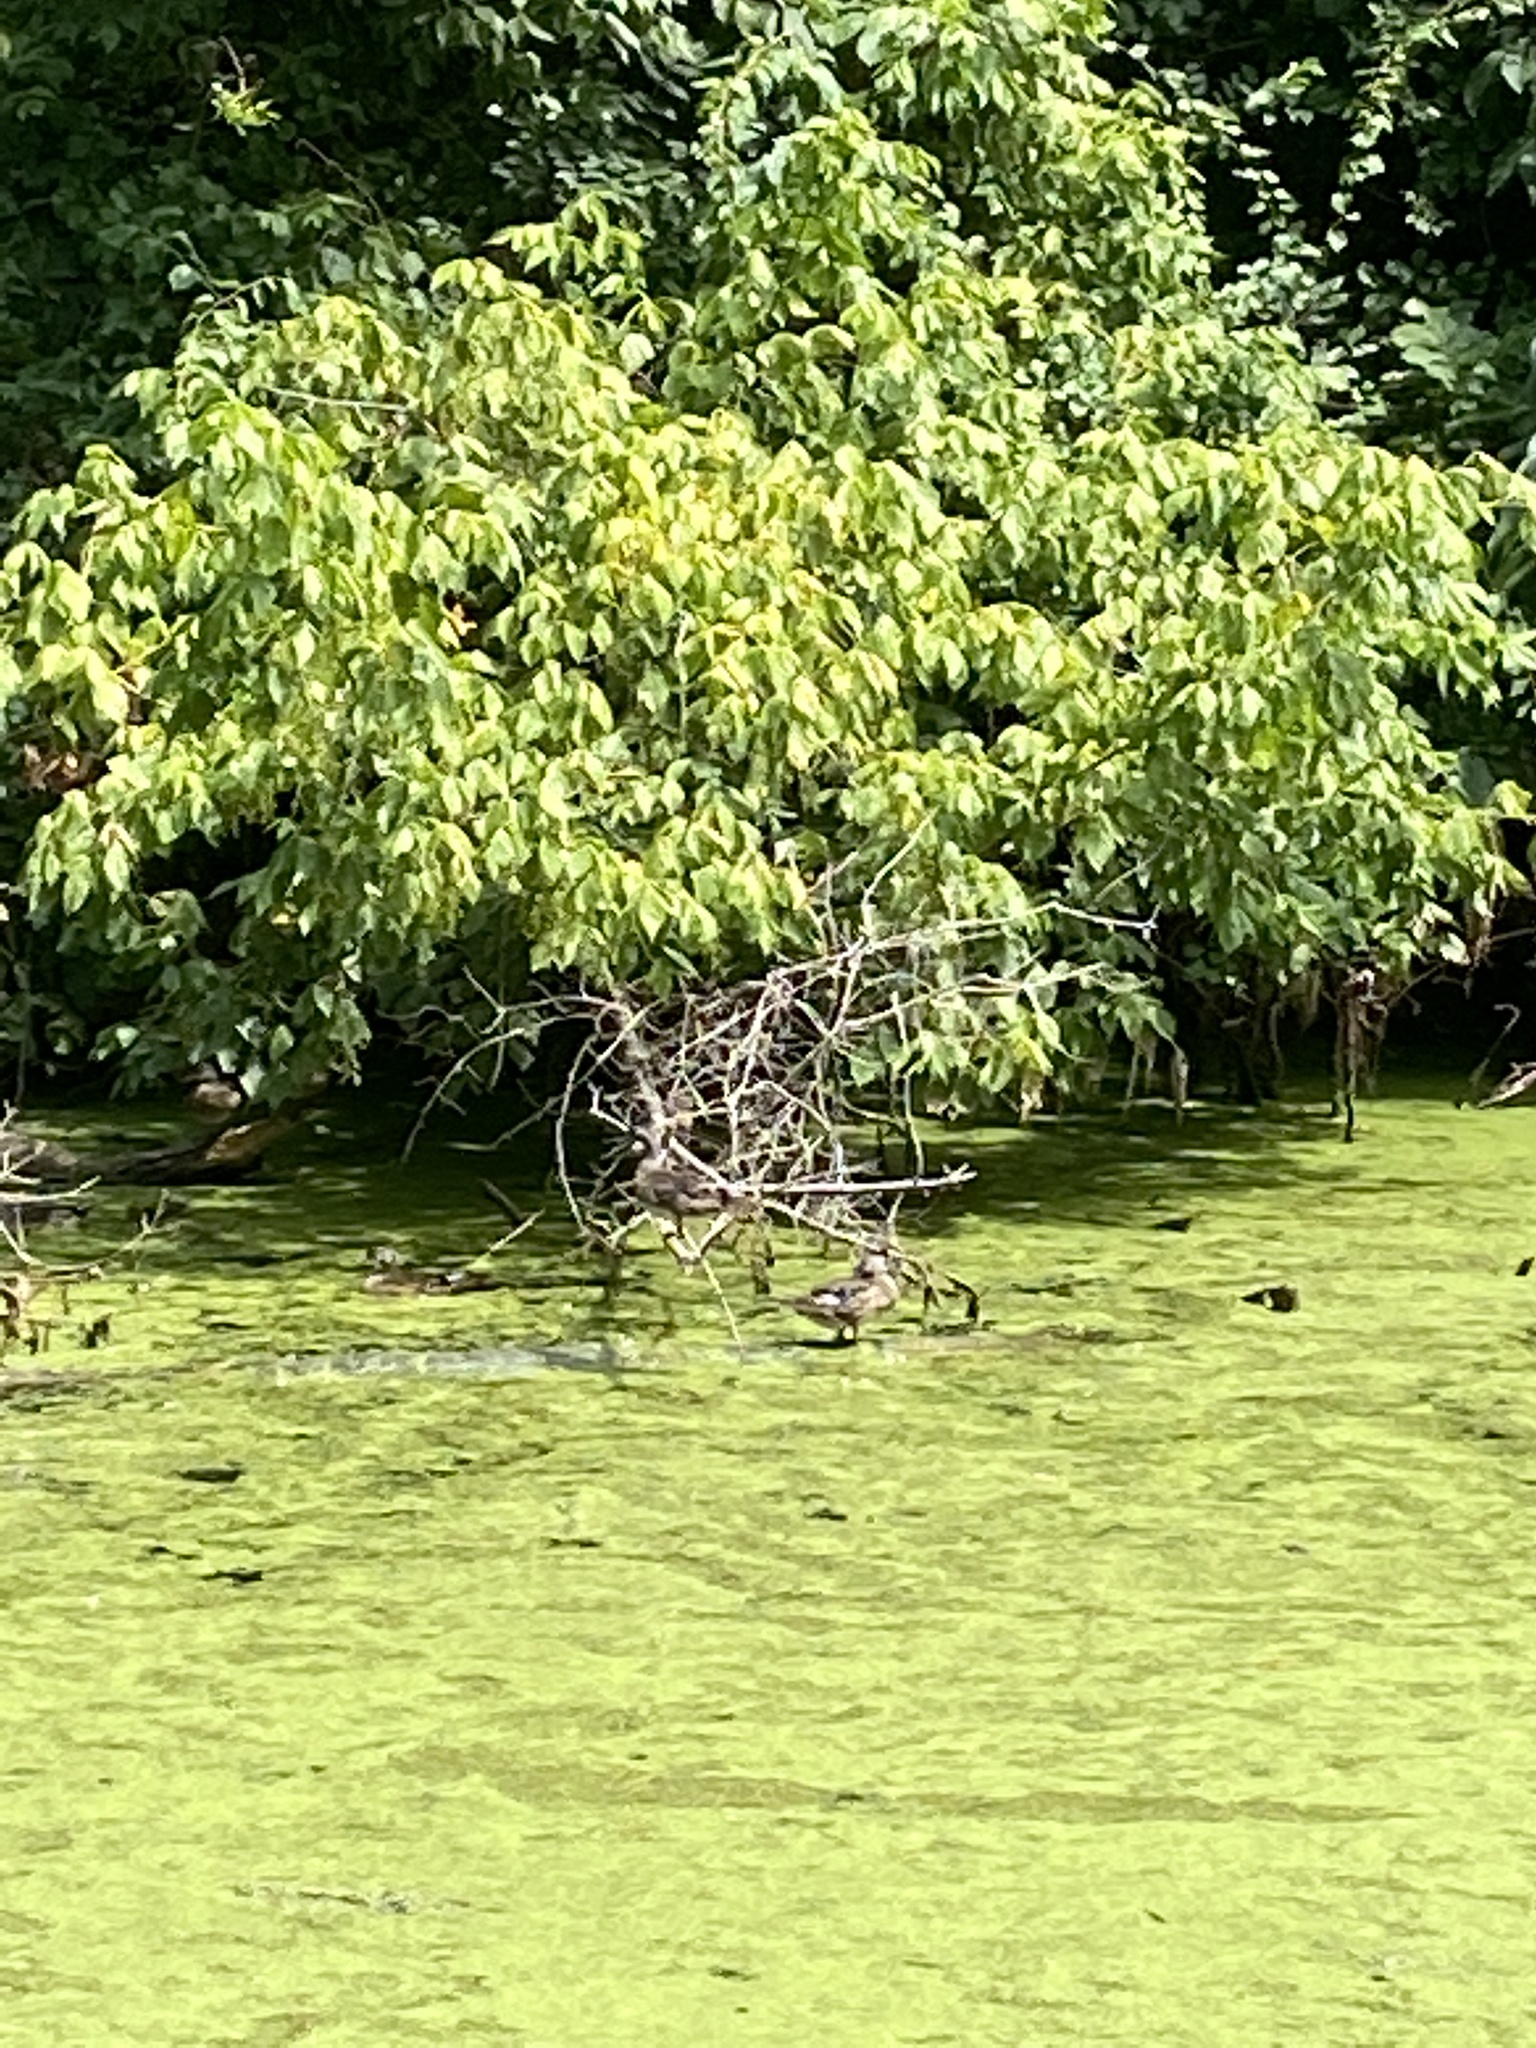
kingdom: Animalia
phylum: Chordata
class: Aves
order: Anseriformes
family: Anatidae
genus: Aix
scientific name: Aix sponsa
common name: Wood duck
